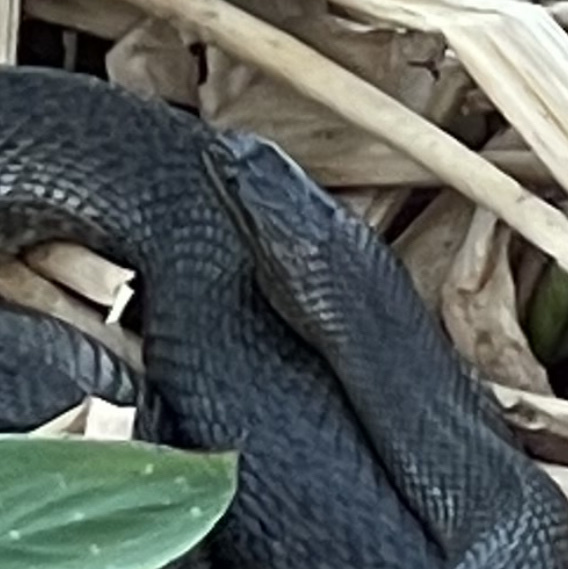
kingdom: Animalia
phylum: Chordata
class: Squamata
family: Colubridae
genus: Nerodia
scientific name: Nerodia floridana
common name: Florida green watersnake
